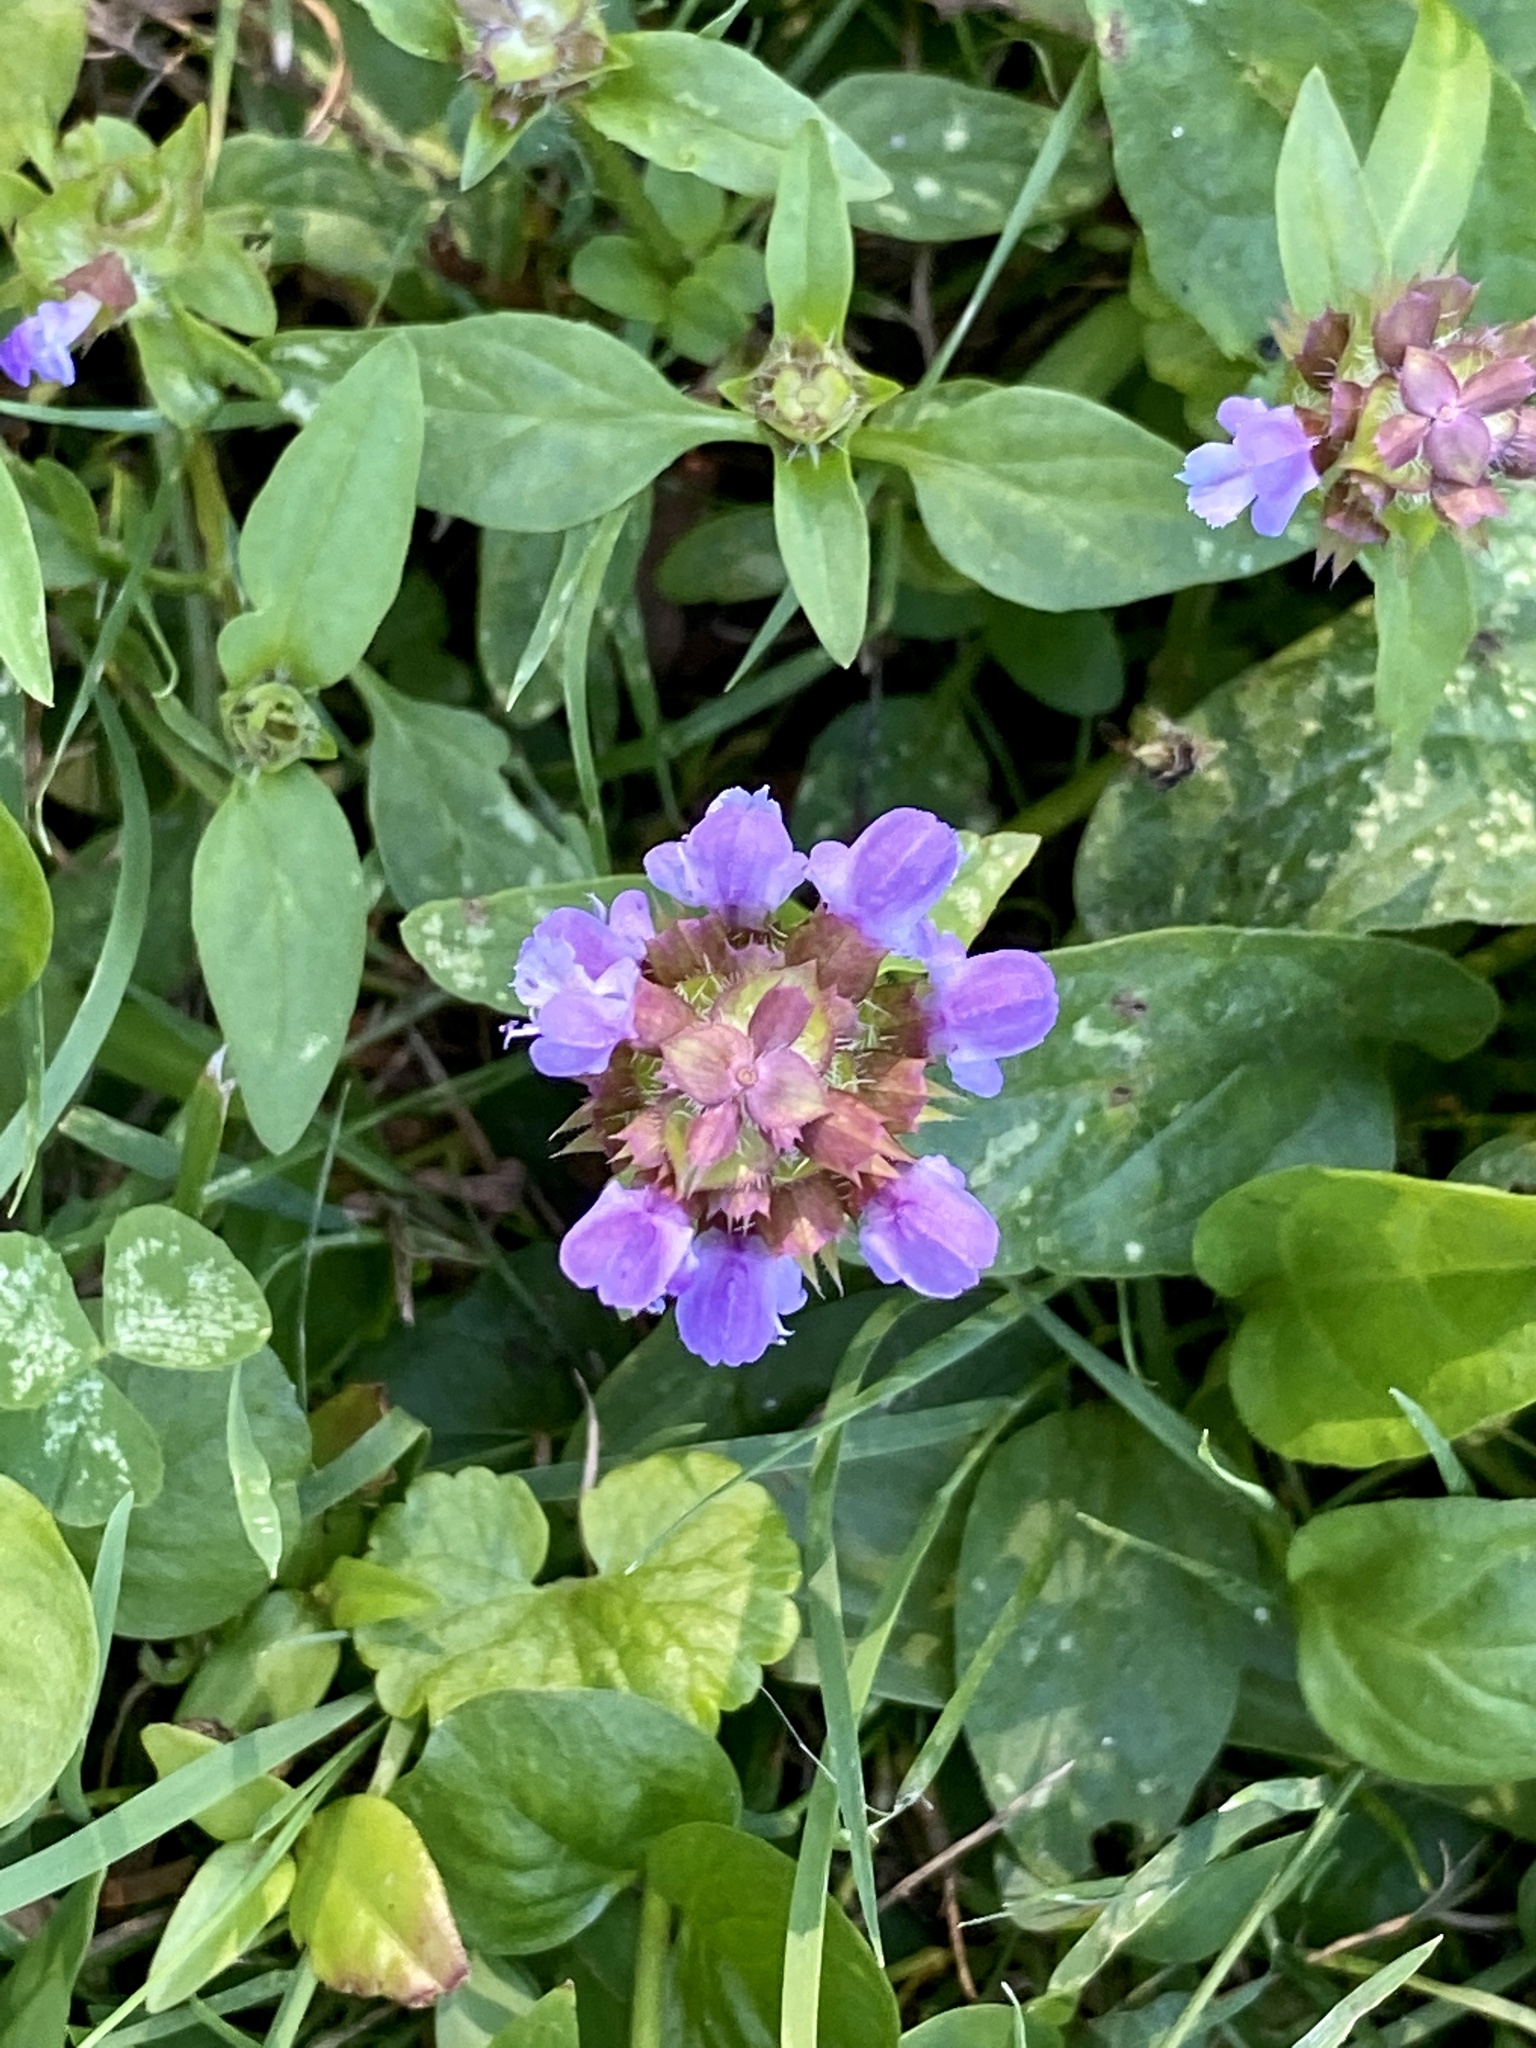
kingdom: Plantae
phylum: Tracheophyta
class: Magnoliopsida
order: Lamiales
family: Lamiaceae
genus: Prunella
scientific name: Prunella vulgaris
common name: Heal-all
